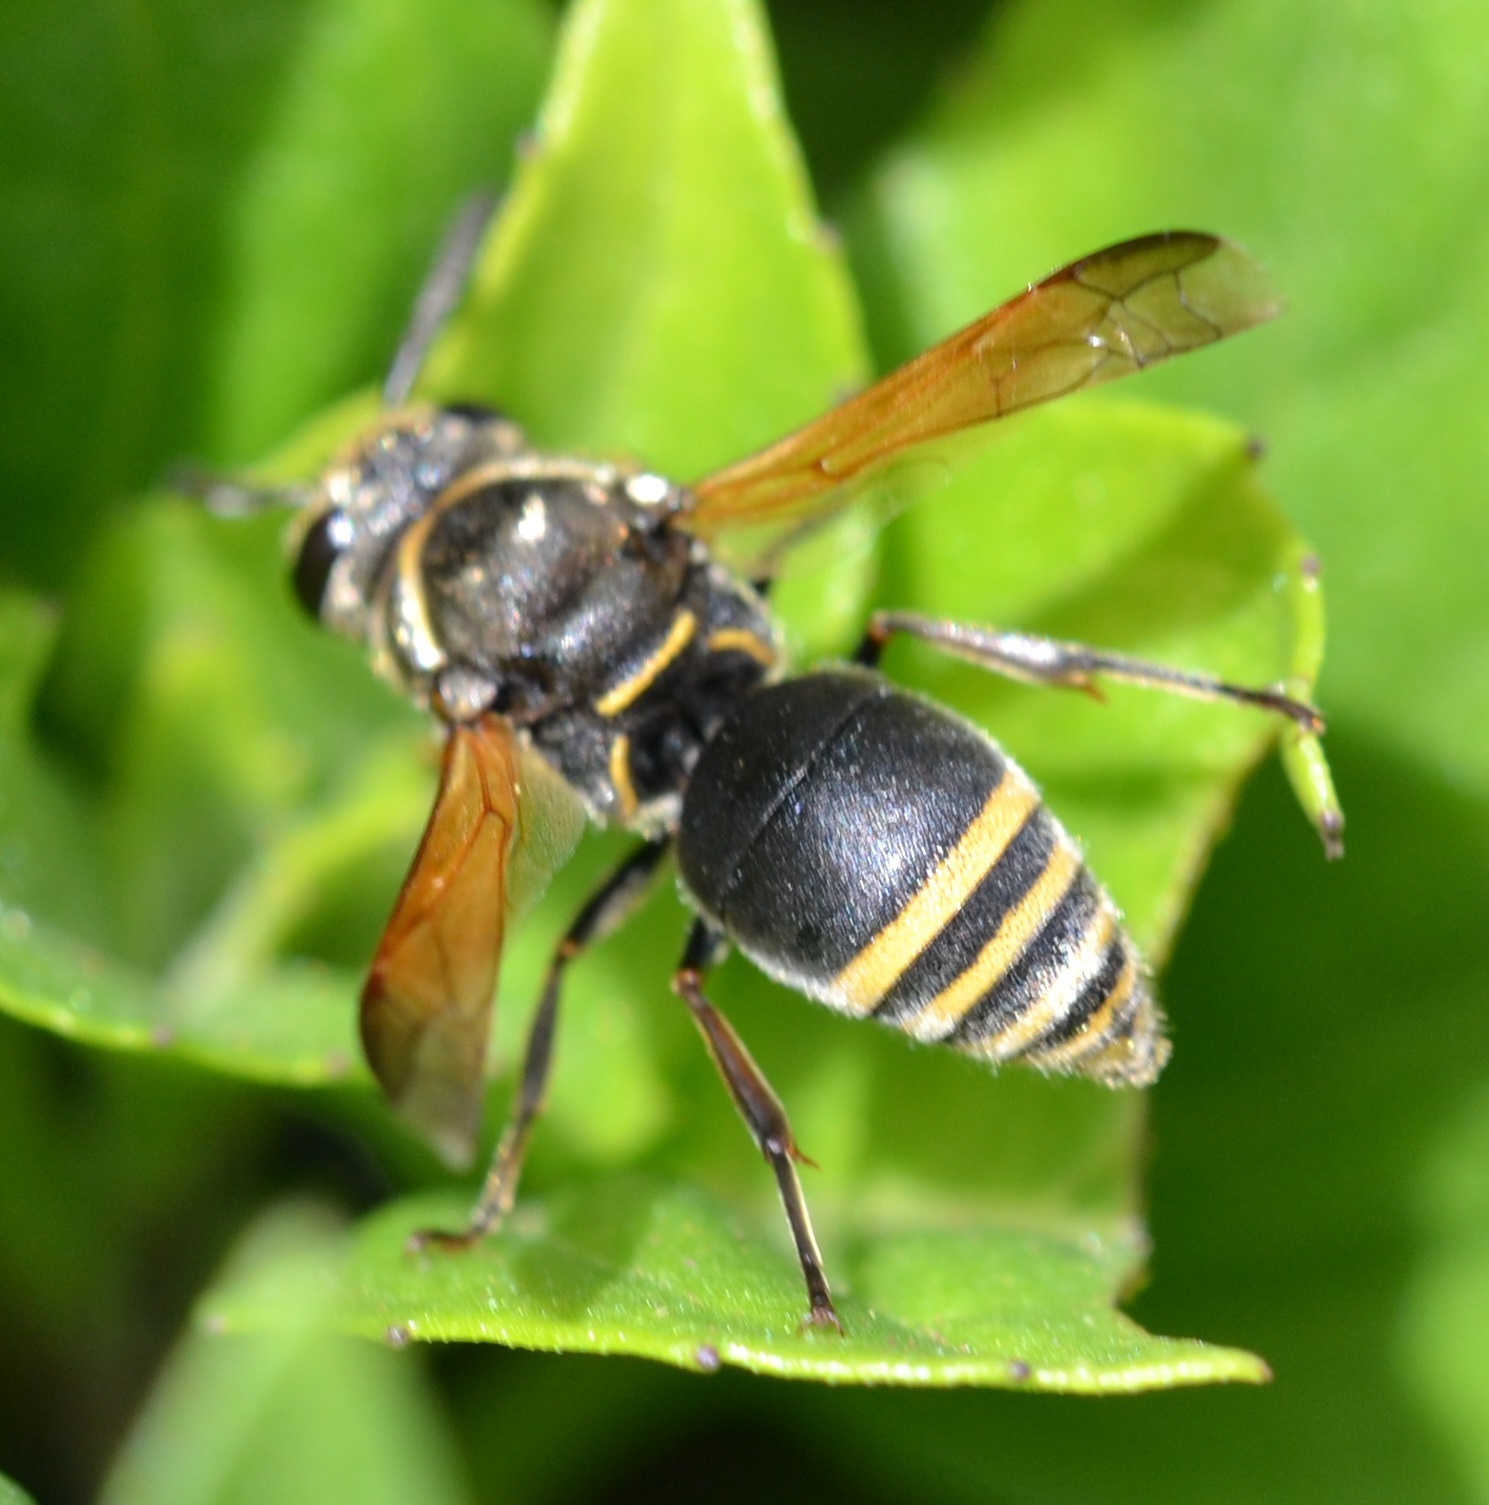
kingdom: Animalia
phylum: Arthropoda
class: Insecta
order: Hymenoptera
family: Eumenidae
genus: Pachodynerus
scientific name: Pachodynerus nasidens
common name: Key hole wasp
